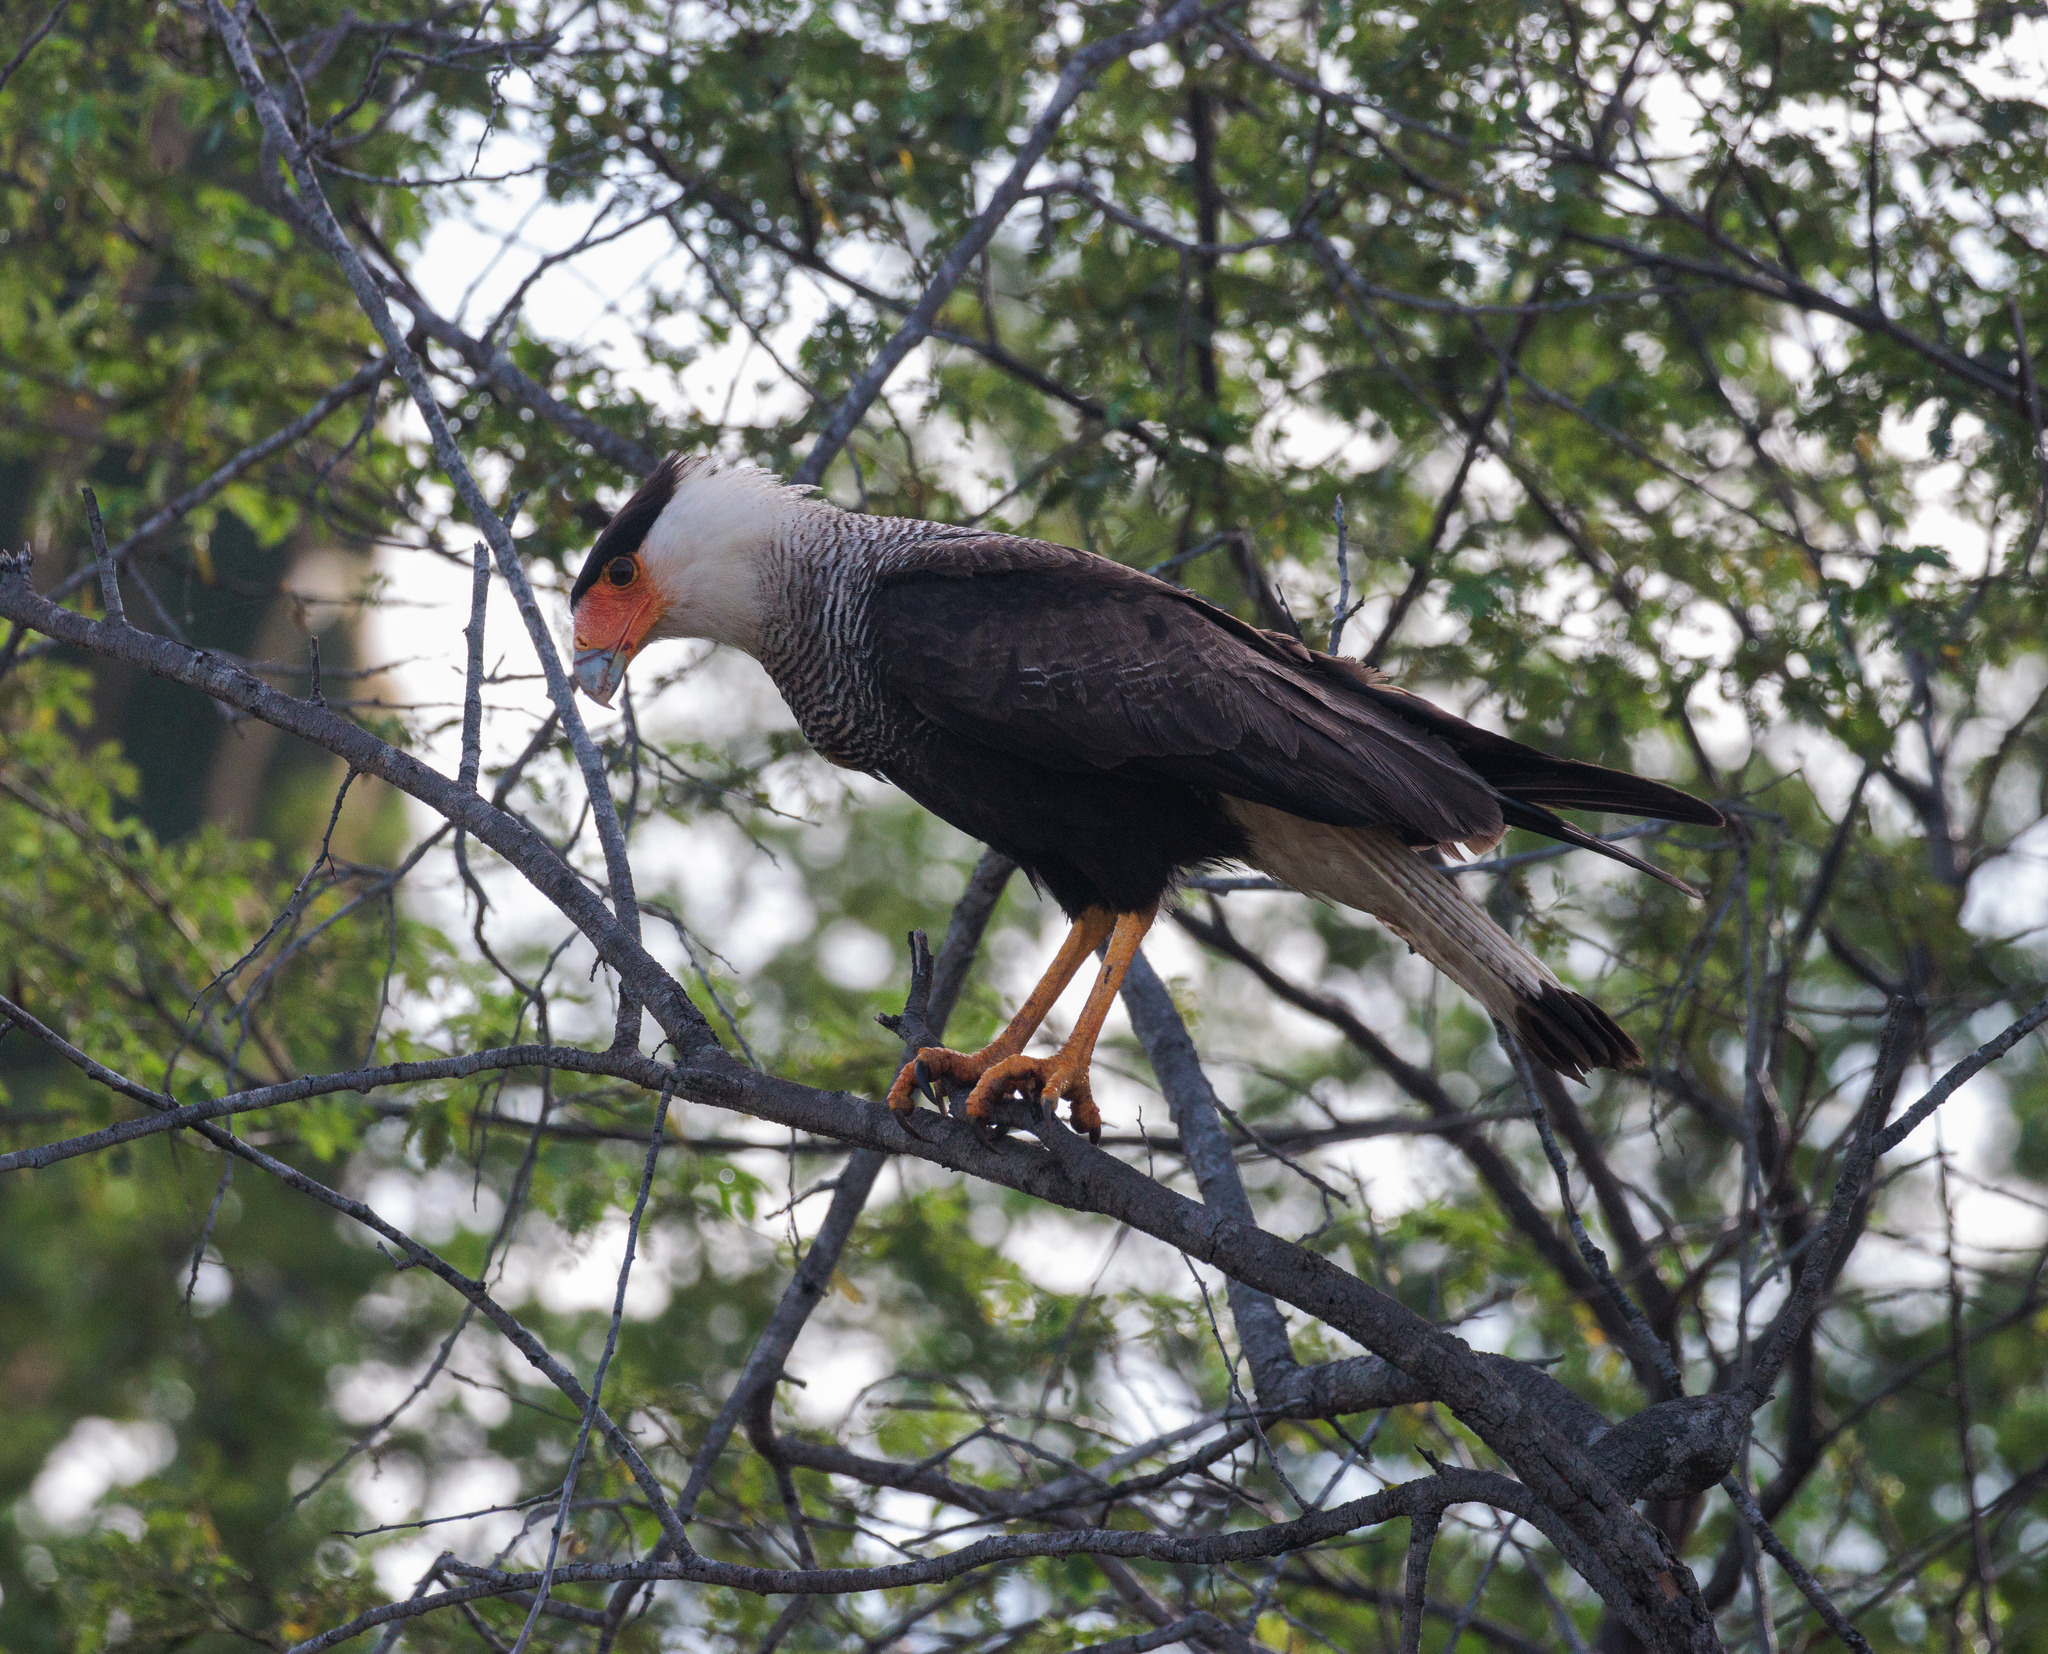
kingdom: Animalia
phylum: Chordata
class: Aves
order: Falconiformes
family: Falconidae
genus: Caracara
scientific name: Caracara plancus
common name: Southern caracara
